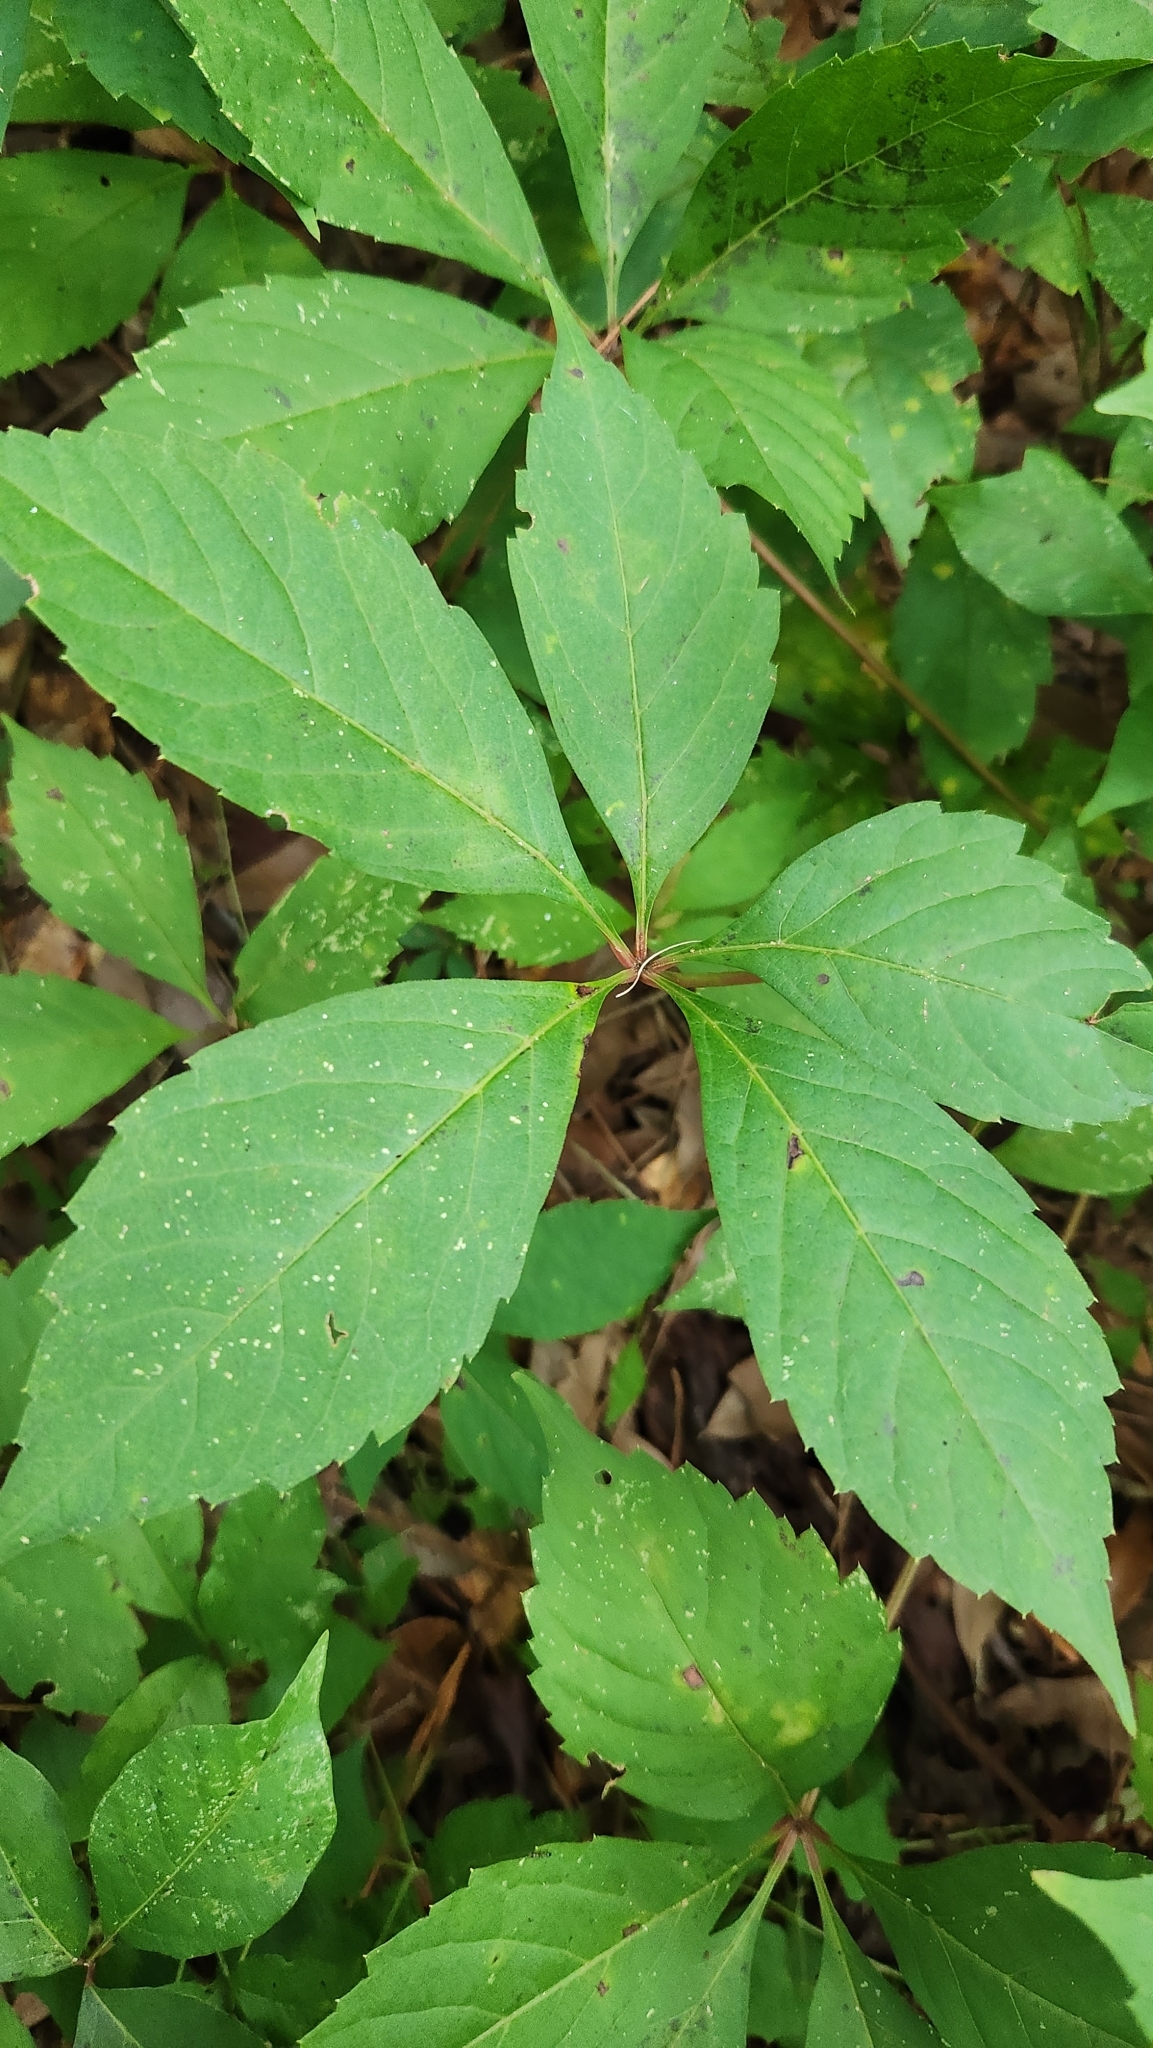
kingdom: Plantae
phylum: Tracheophyta
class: Magnoliopsida
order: Vitales
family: Vitaceae
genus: Parthenocissus
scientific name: Parthenocissus quinquefolia
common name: Virginia-creeper
